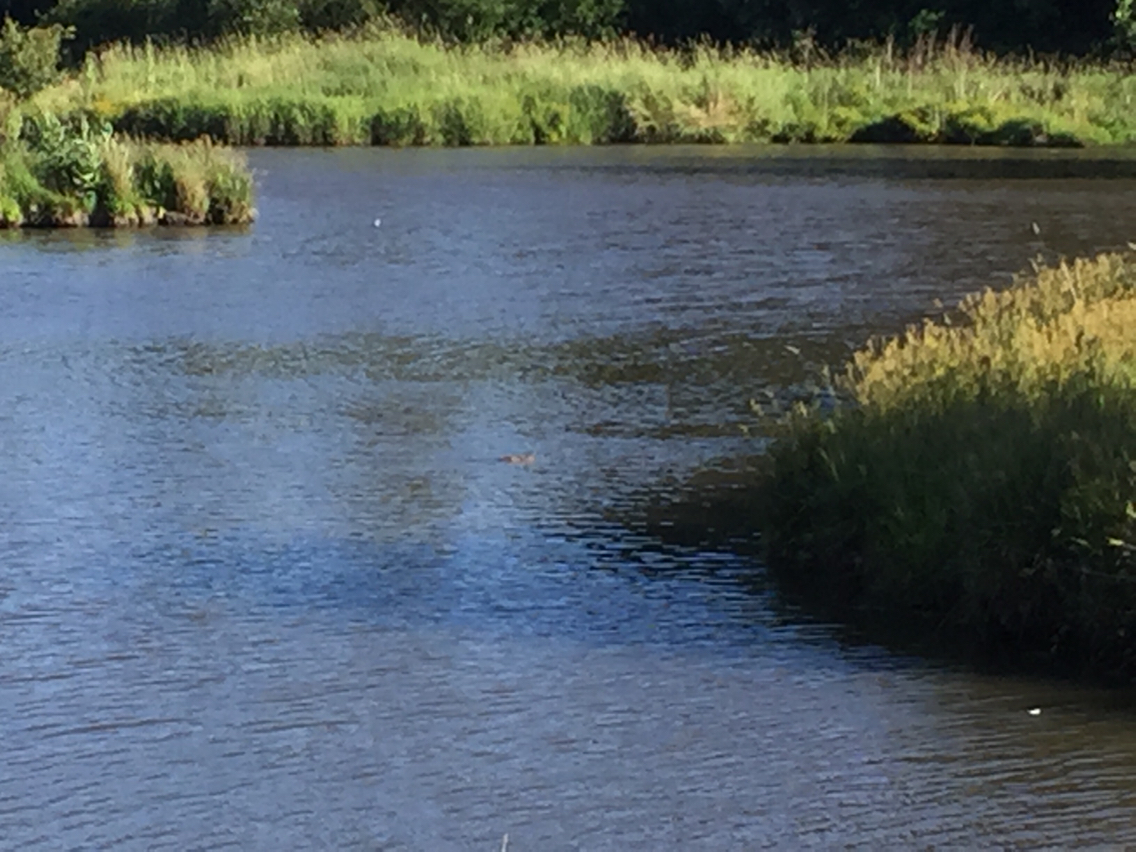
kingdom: Animalia
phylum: Chordata
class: Mammalia
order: Rodentia
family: Myocastoridae
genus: Myocastor
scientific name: Myocastor coypus
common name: Coypu
